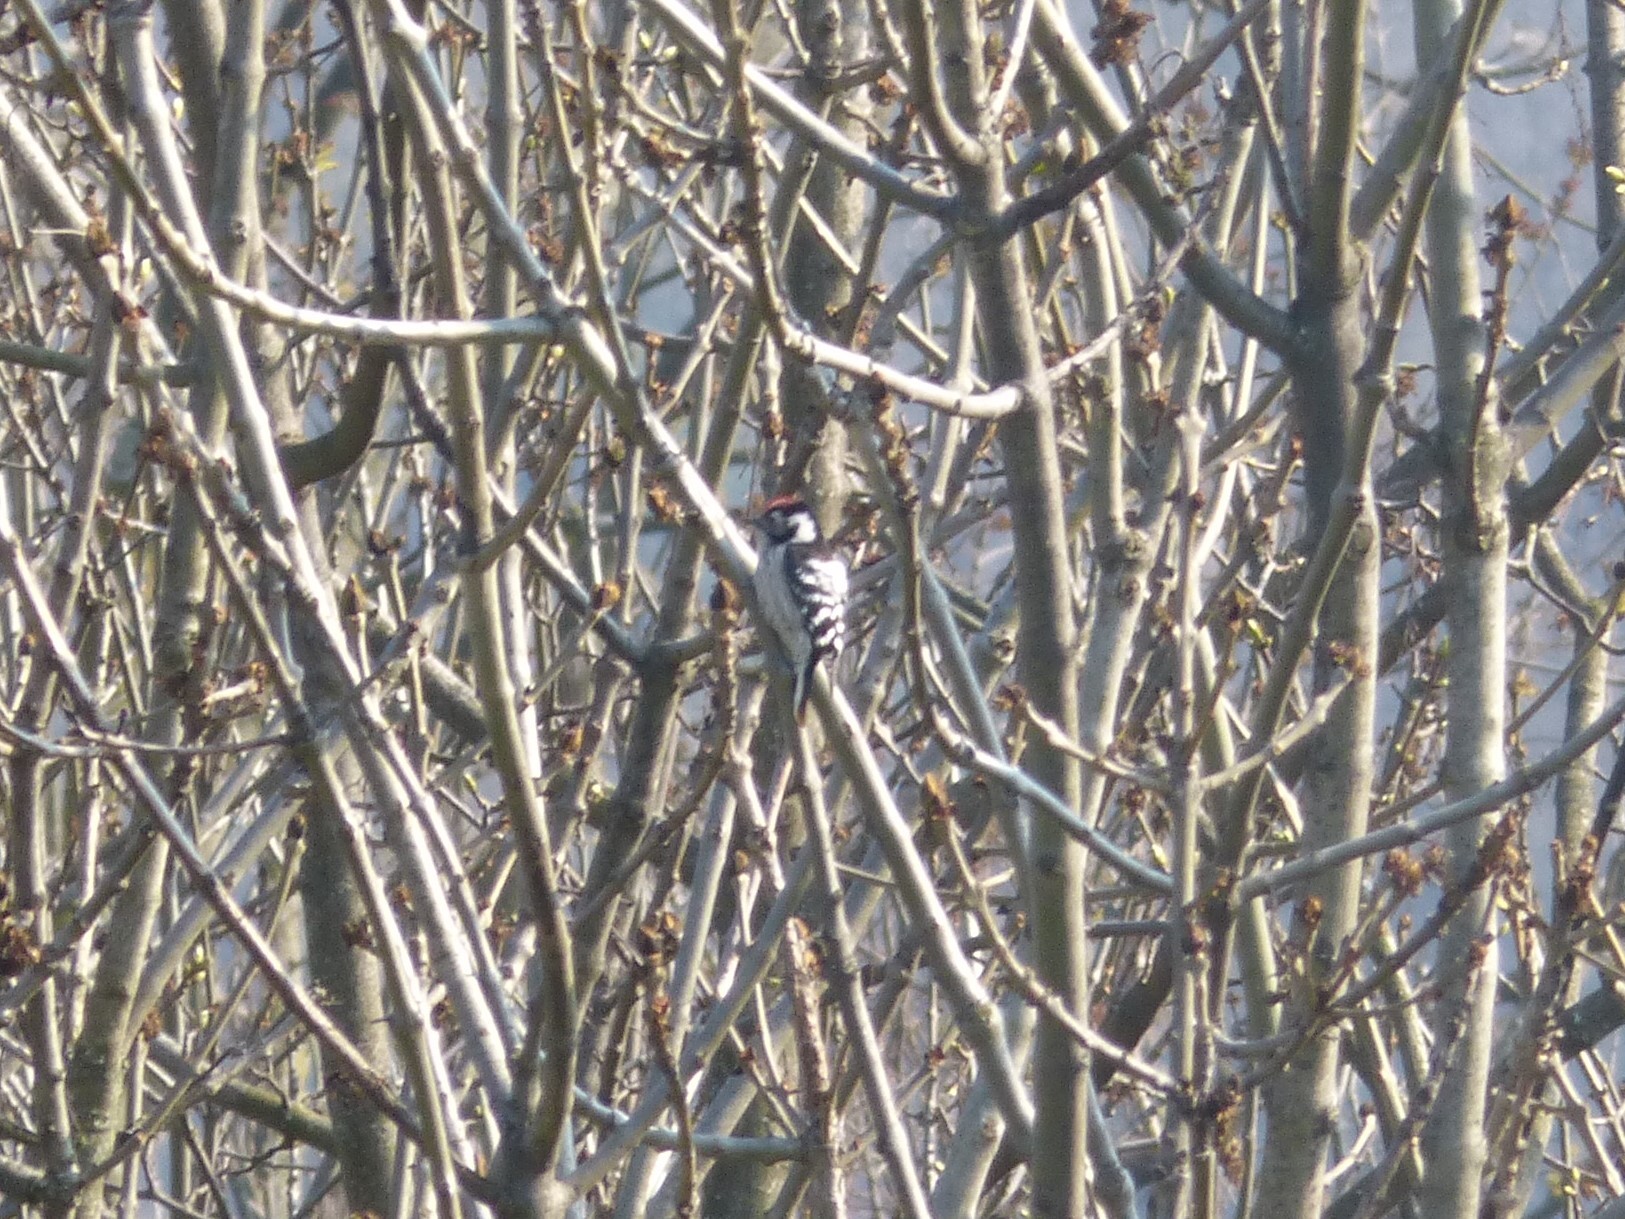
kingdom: Animalia
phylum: Chordata
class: Aves
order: Piciformes
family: Picidae
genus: Dryobates
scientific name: Dryobates minor
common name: Lesser spotted woodpecker
